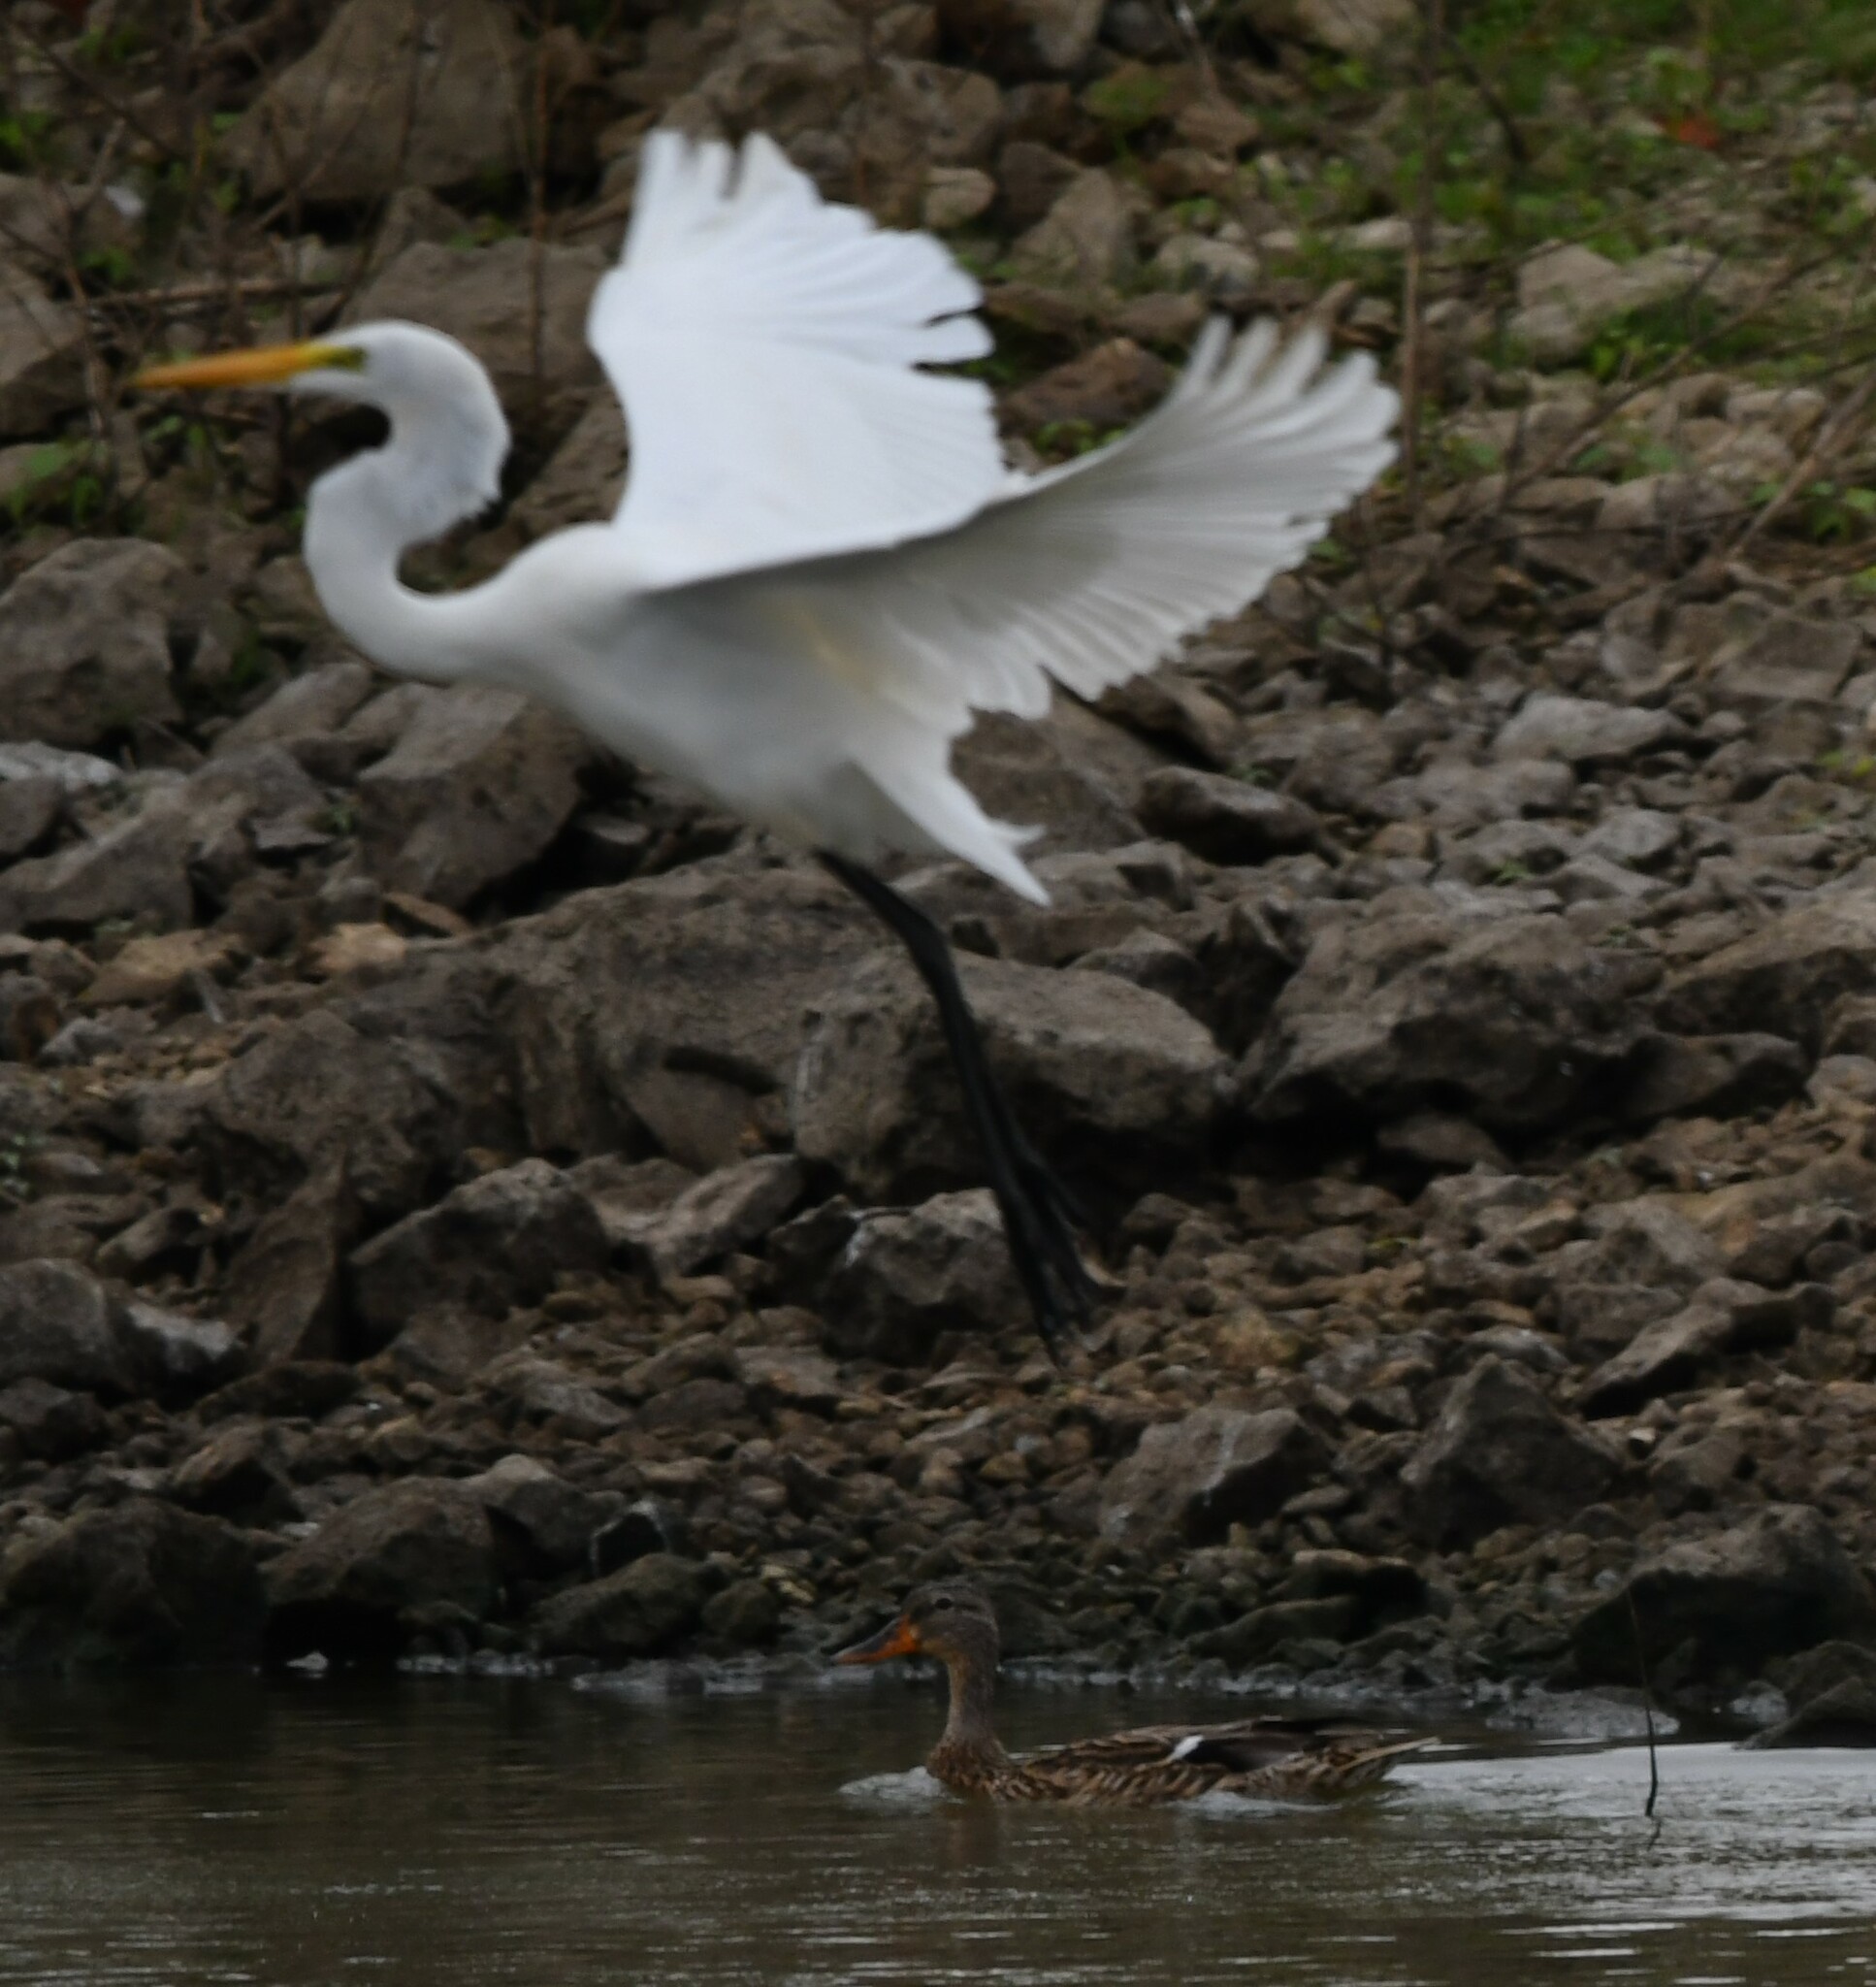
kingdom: Animalia
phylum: Chordata
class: Aves
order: Pelecaniformes
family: Ardeidae
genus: Ardea
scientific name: Ardea alba
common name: Great egret
